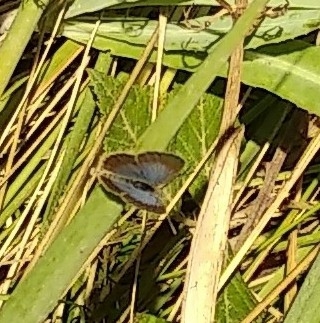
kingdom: Animalia
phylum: Arthropoda
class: Insecta
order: Lepidoptera
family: Lycaenidae
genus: Zizeeria
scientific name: Zizeeria knysna
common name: African grass blue
